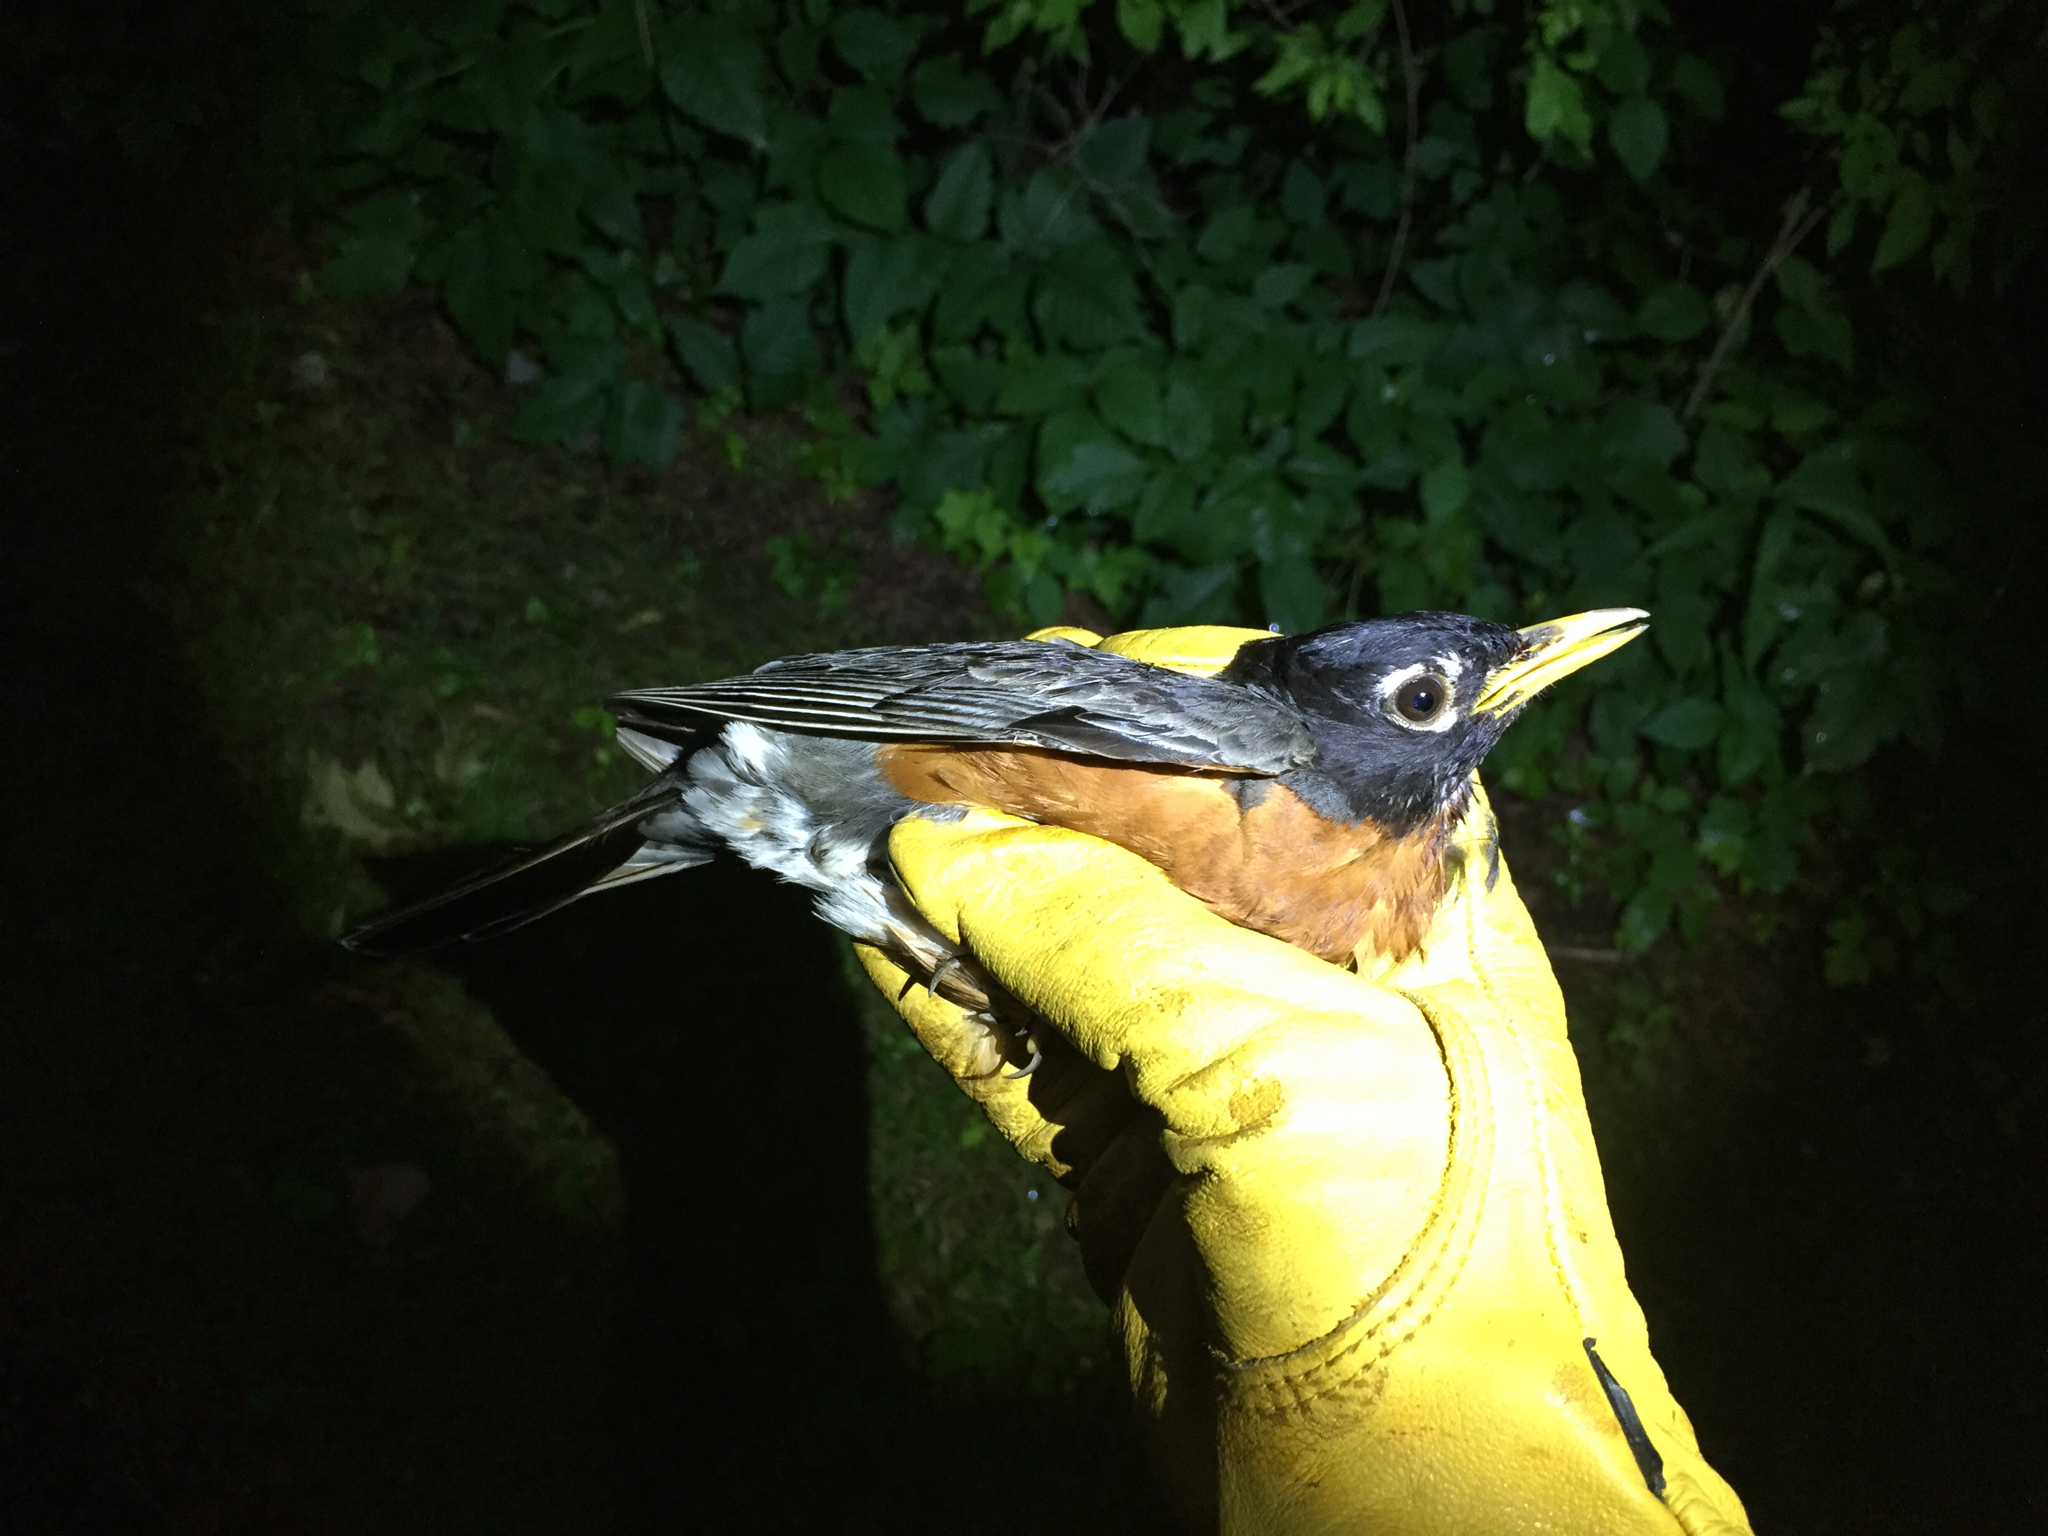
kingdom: Animalia
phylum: Chordata
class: Aves
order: Passeriformes
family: Turdidae
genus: Turdus
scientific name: Turdus migratorius
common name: American robin
